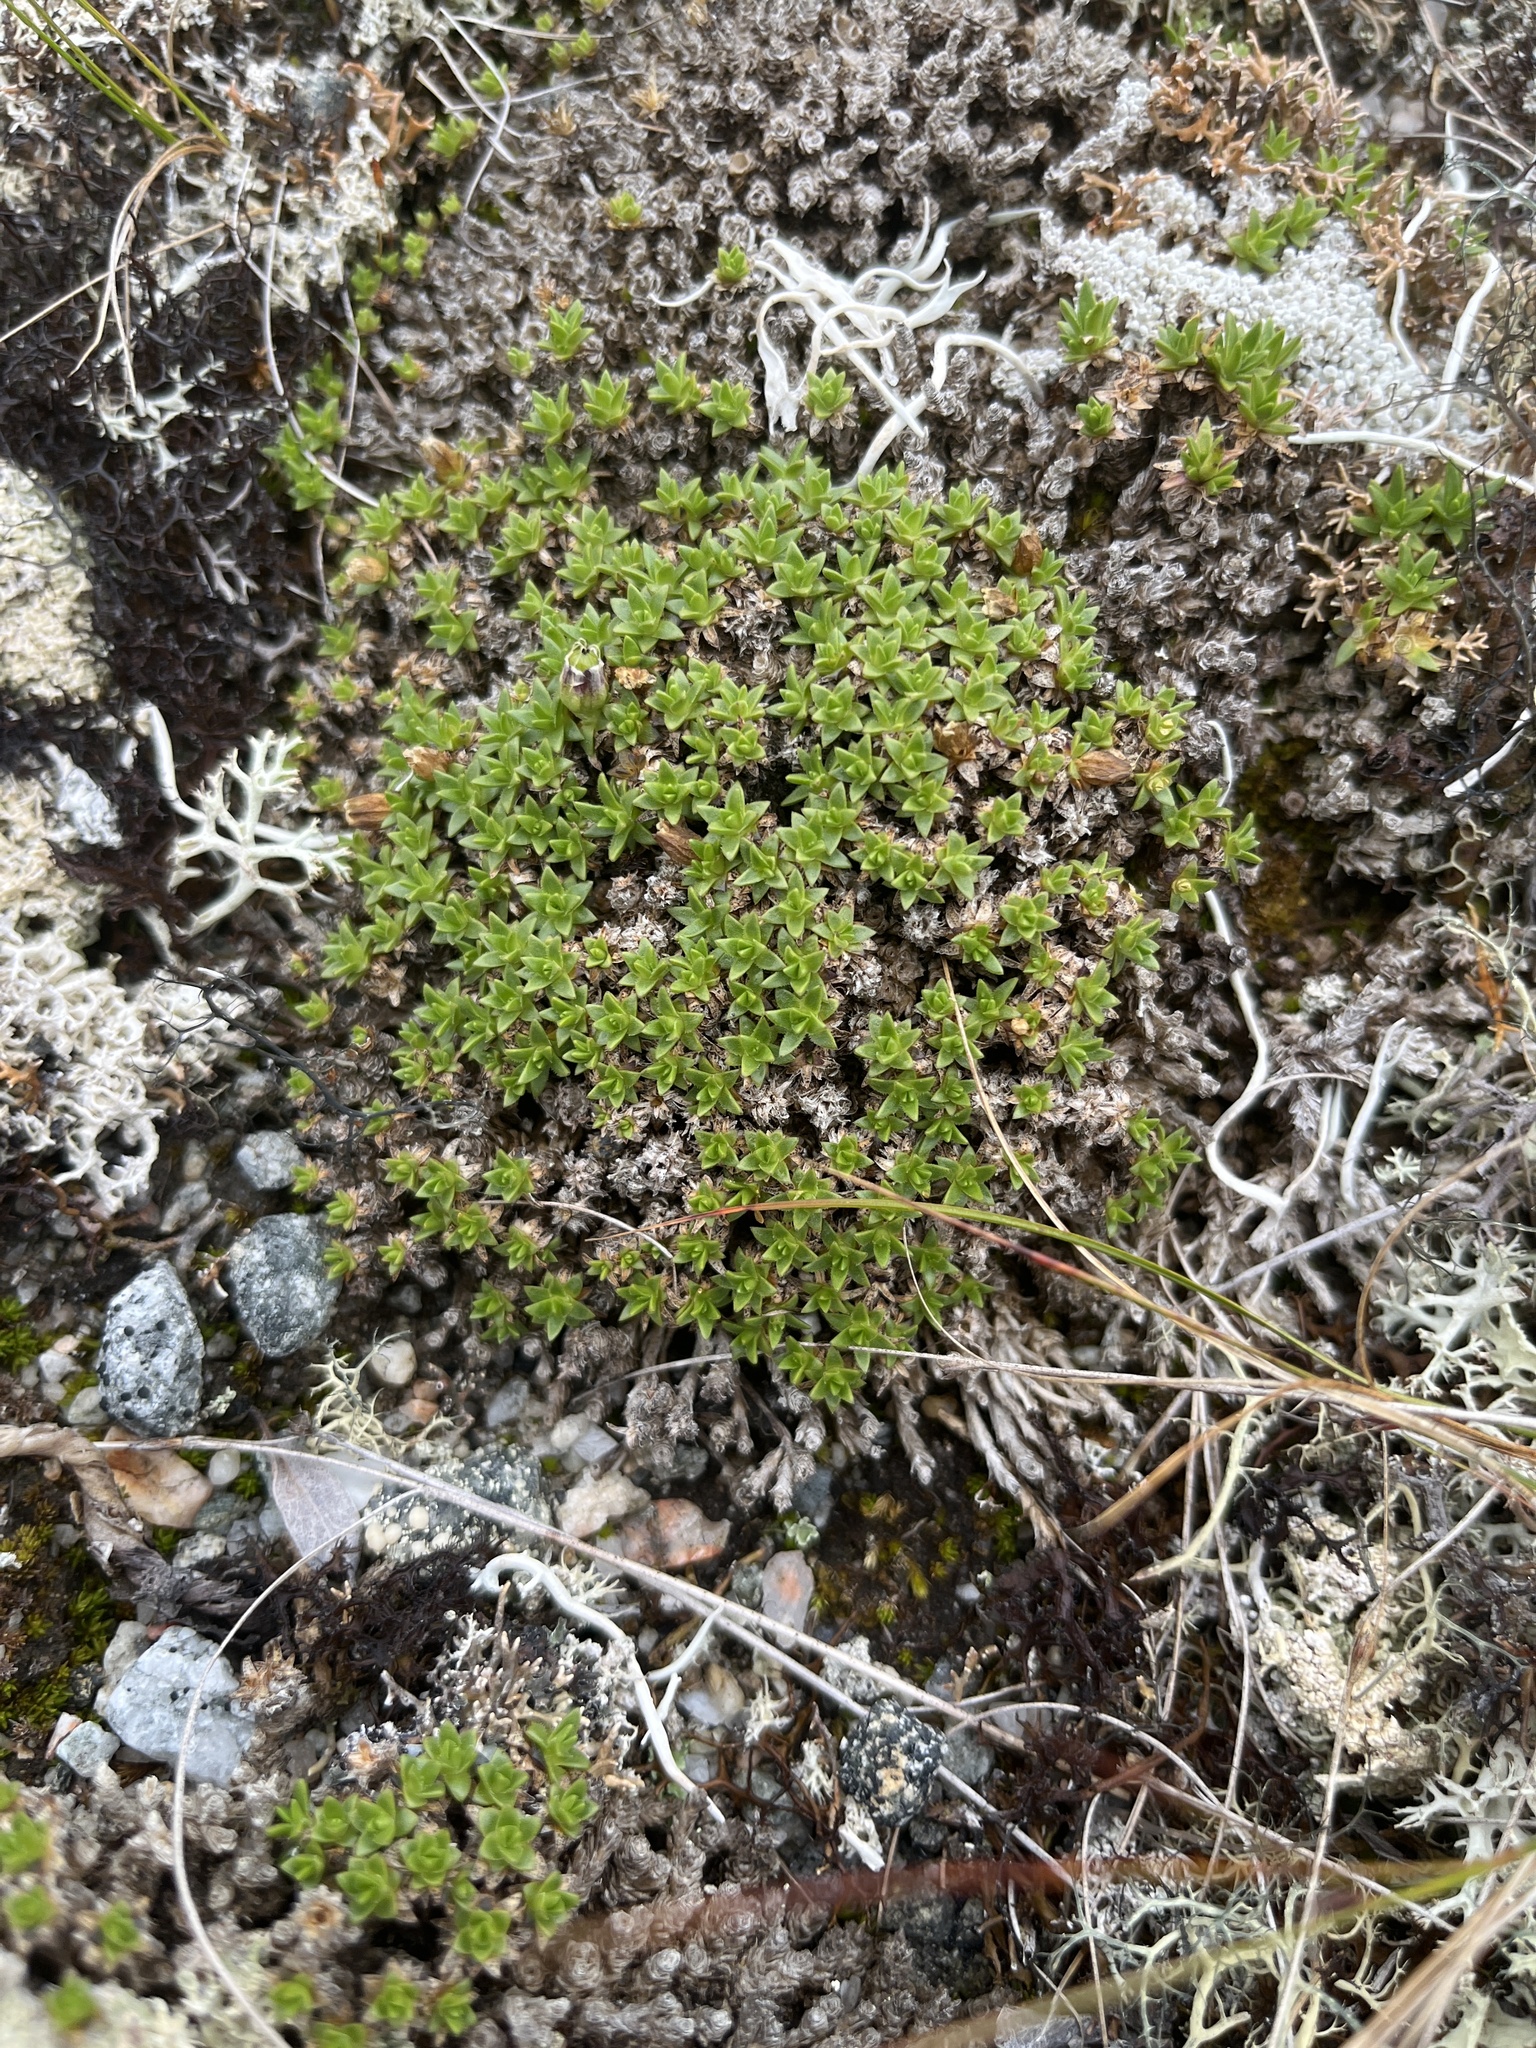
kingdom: Plantae
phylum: Tracheophyta
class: Magnoliopsida
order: Caryophyllales
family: Caryophyllaceae
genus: Silene
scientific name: Silene acaulis
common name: Moss campion
